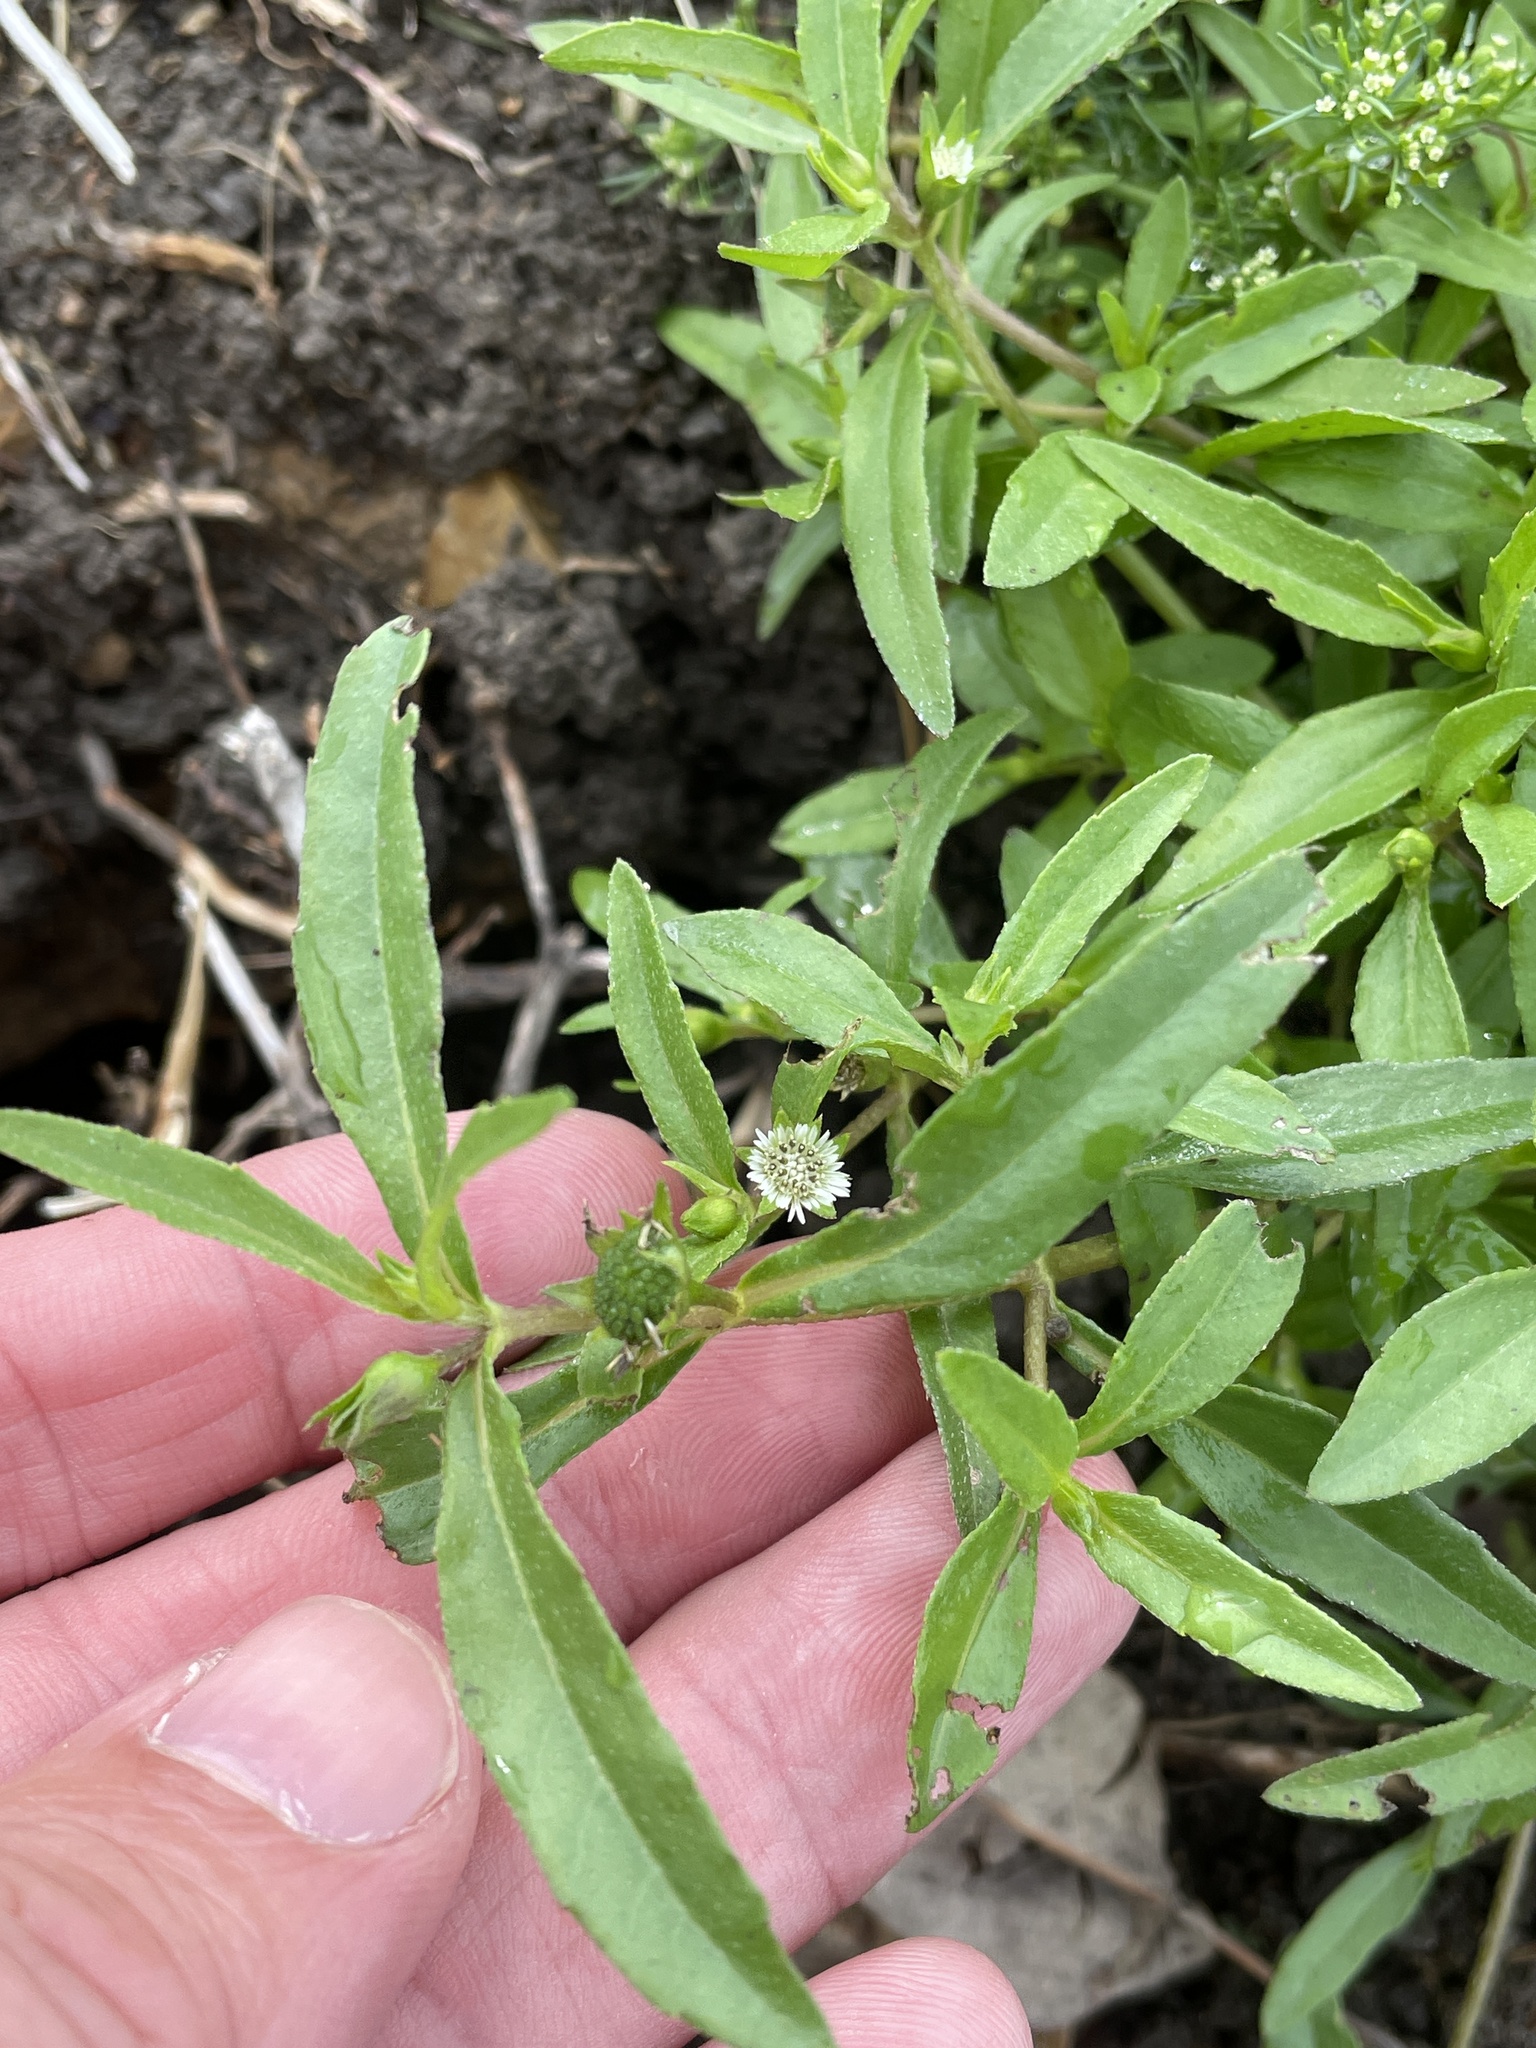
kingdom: Plantae
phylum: Tracheophyta
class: Magnoliopsida
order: Asterales
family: Asteraceae
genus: Eclipta
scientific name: Eclipta prostrata
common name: False daisy
